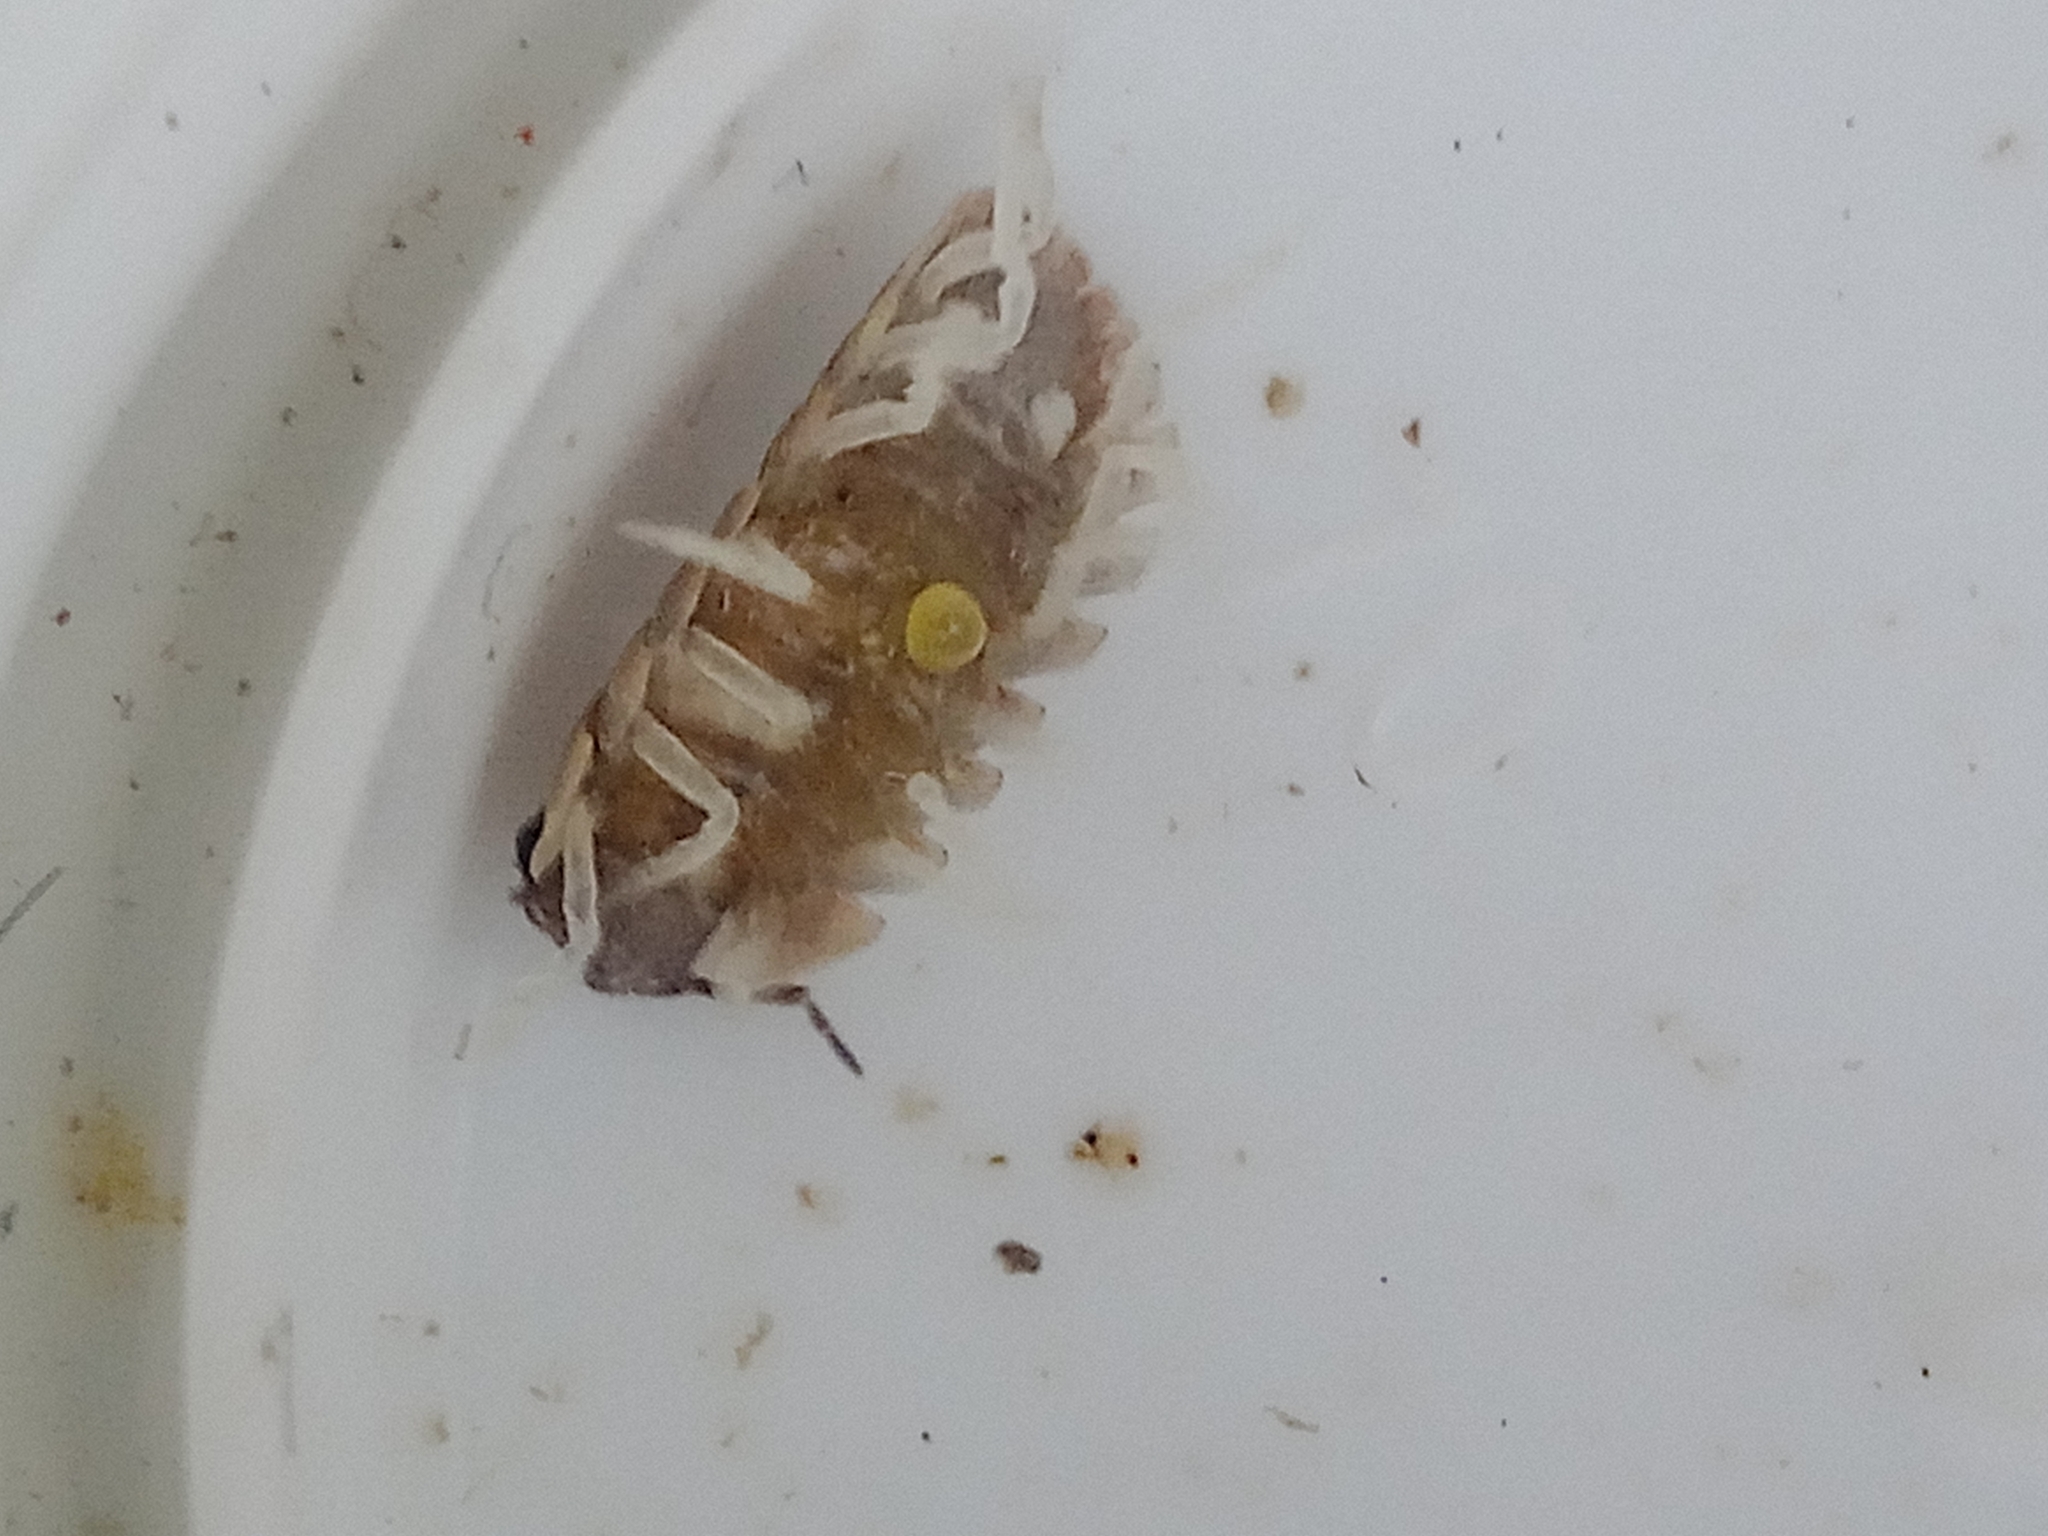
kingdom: Animalia
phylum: Arthropoda
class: Malacostraca
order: Isopoda
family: Armadillidiidae
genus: Armadillidium
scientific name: Armadillidium versicolor
